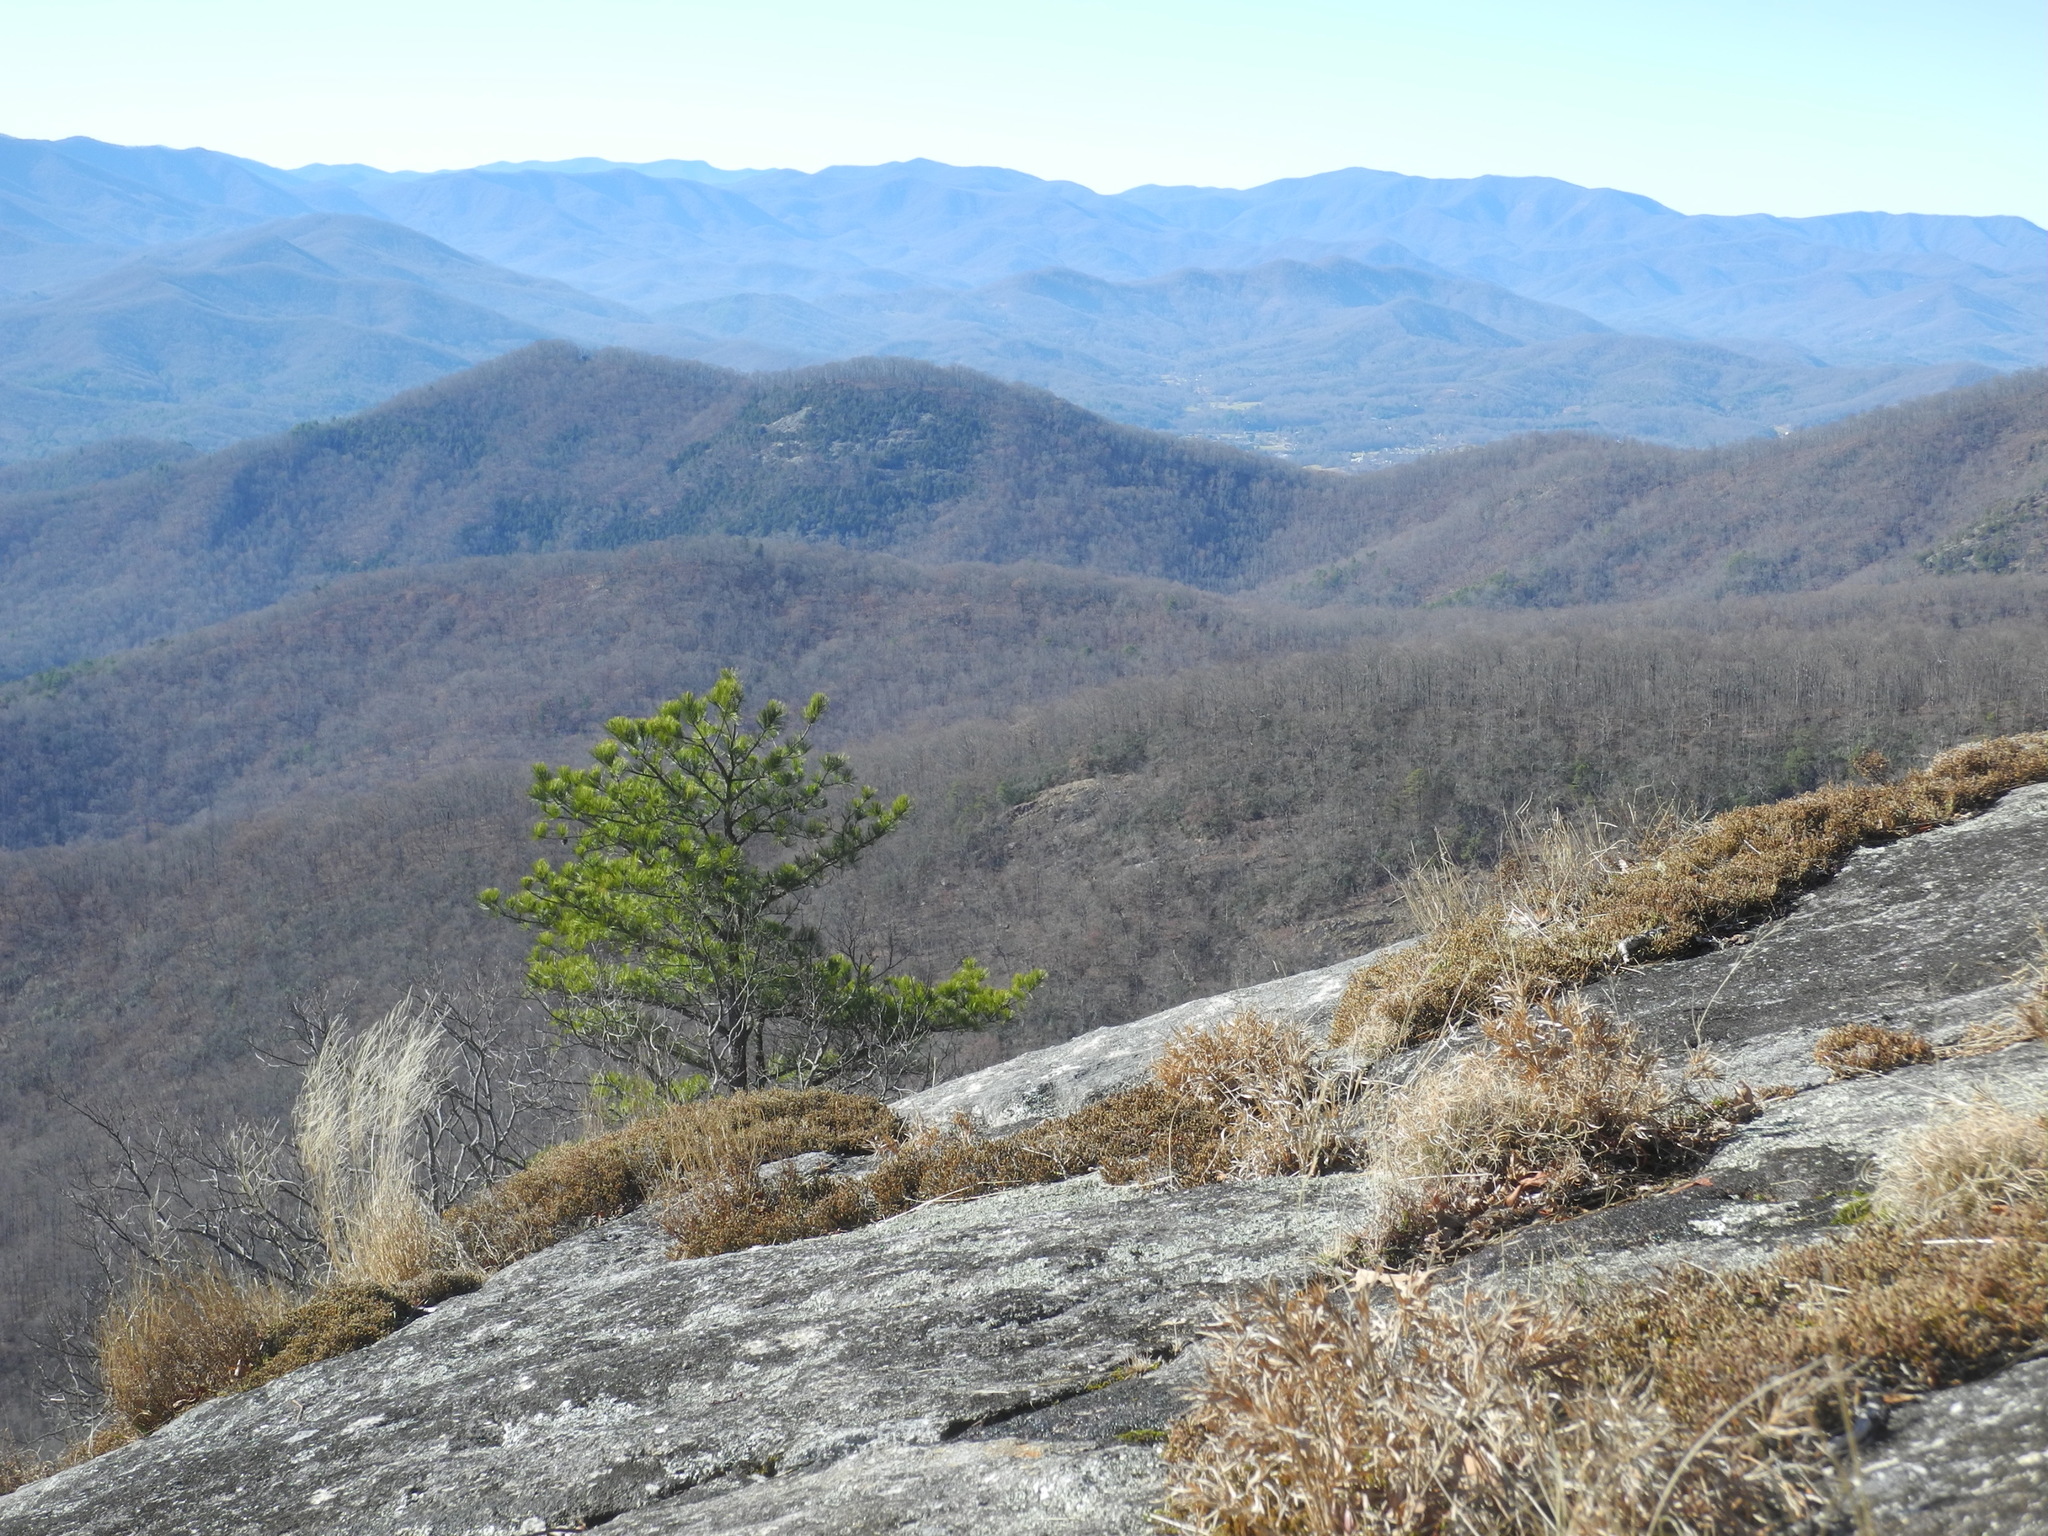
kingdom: Plantae
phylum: Tracheophyta
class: Pinopsida
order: Pinales
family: Pinaceae
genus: Pinus
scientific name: Pinus rigida
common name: Pitch pine
